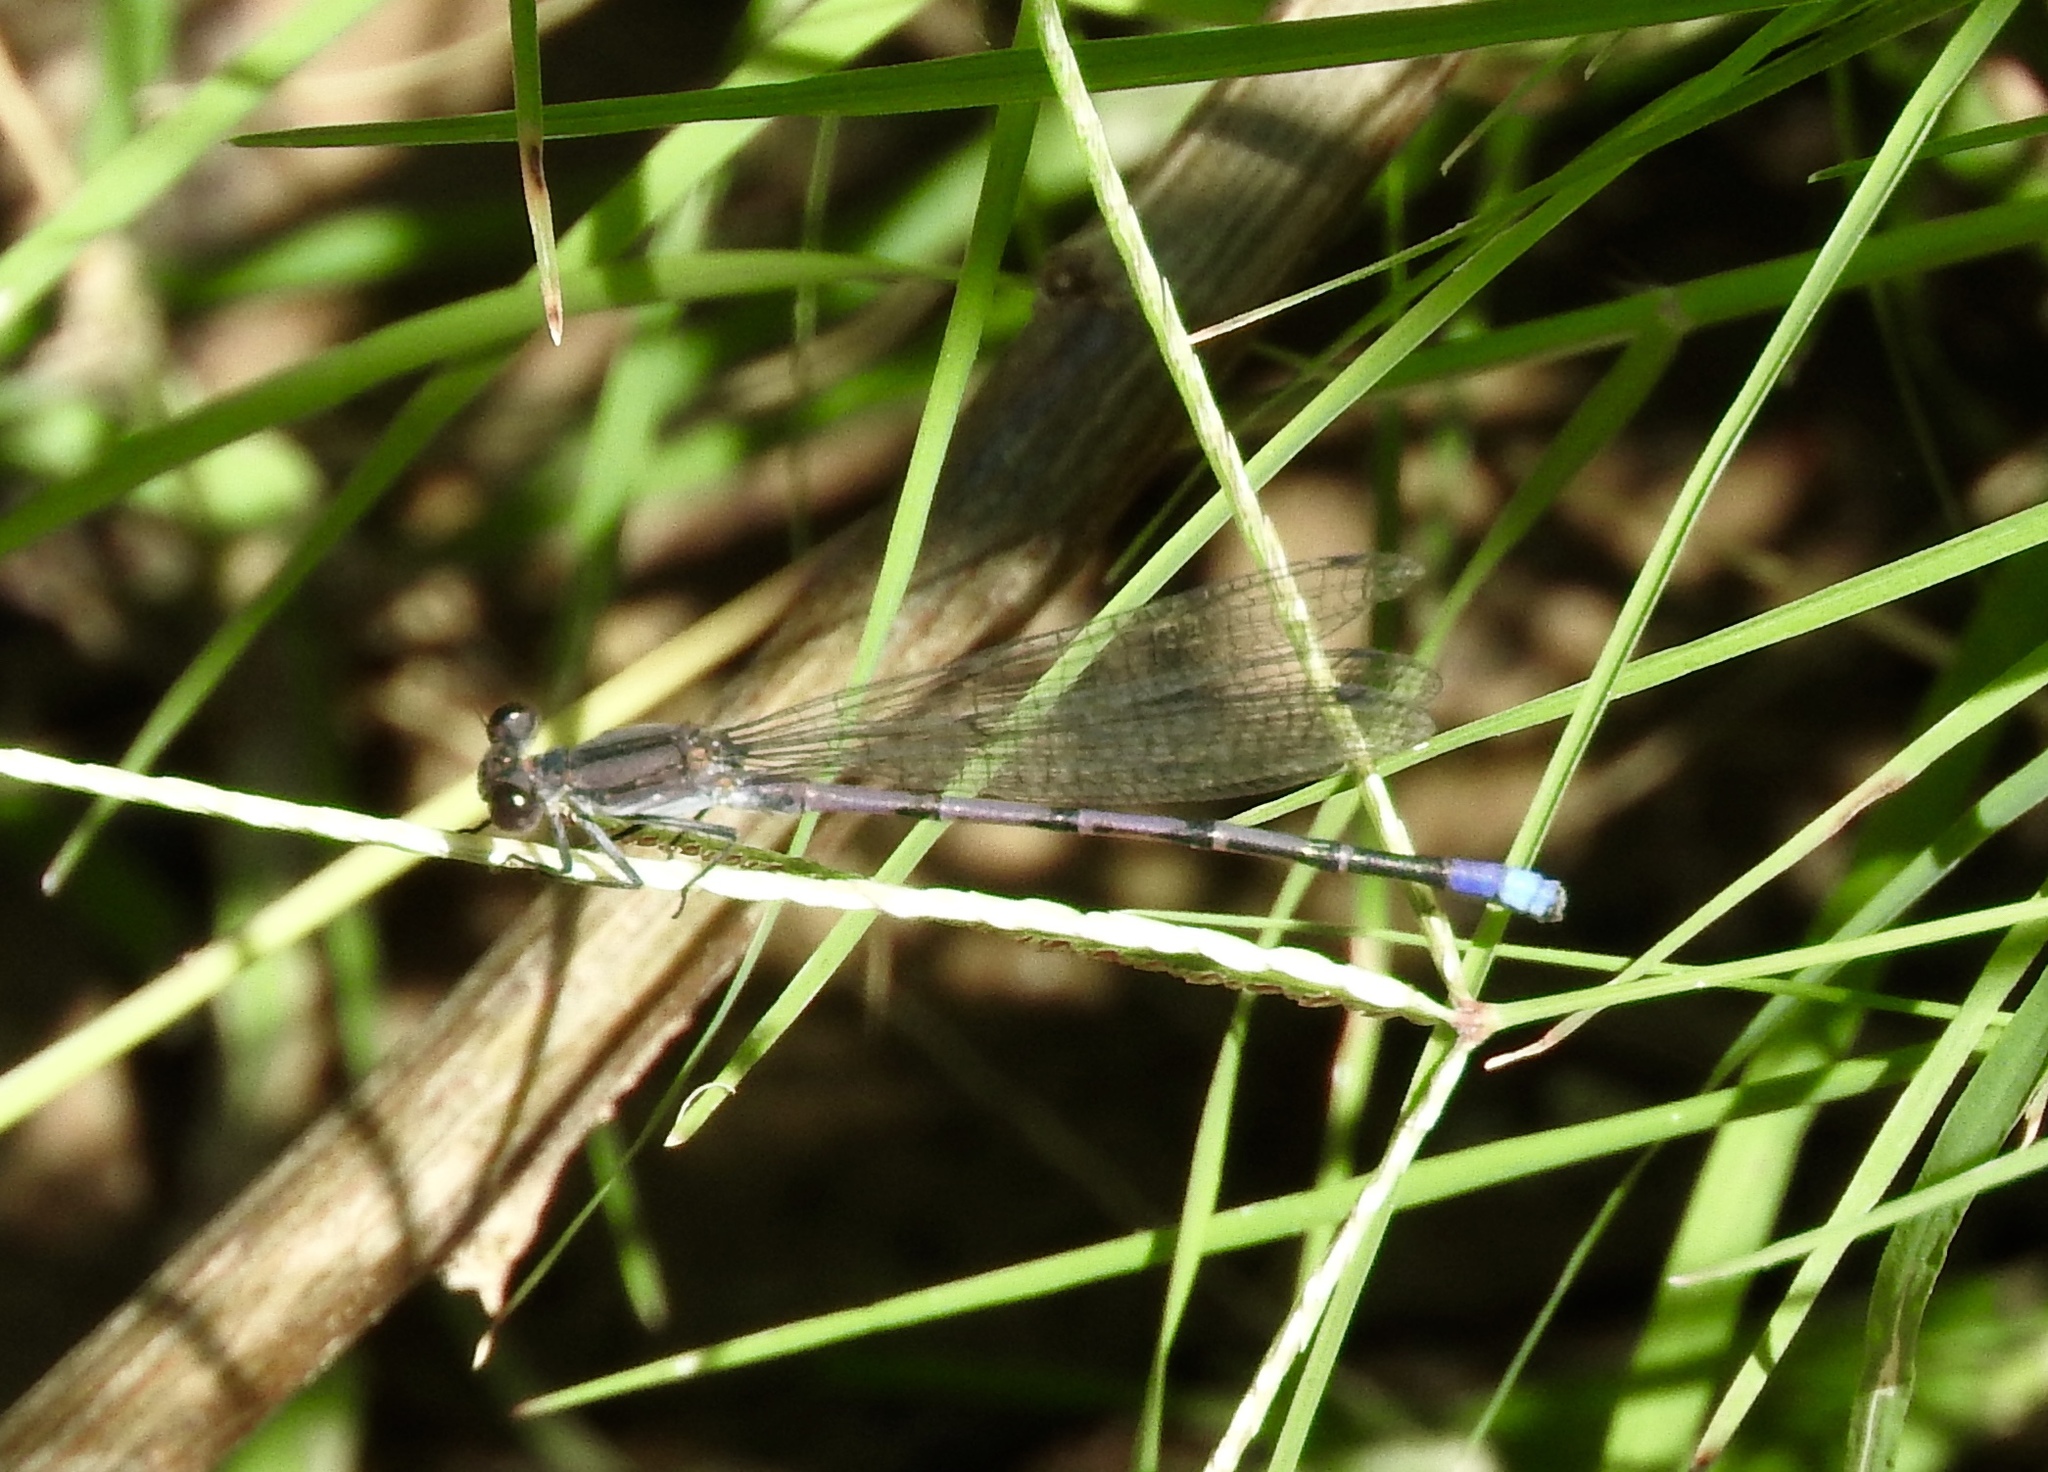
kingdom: Animalia
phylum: Arthropoda
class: Insecta
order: Odonata
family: Coenagrionidae
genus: Argia
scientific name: Argia fumipennis
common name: Variable dancer
